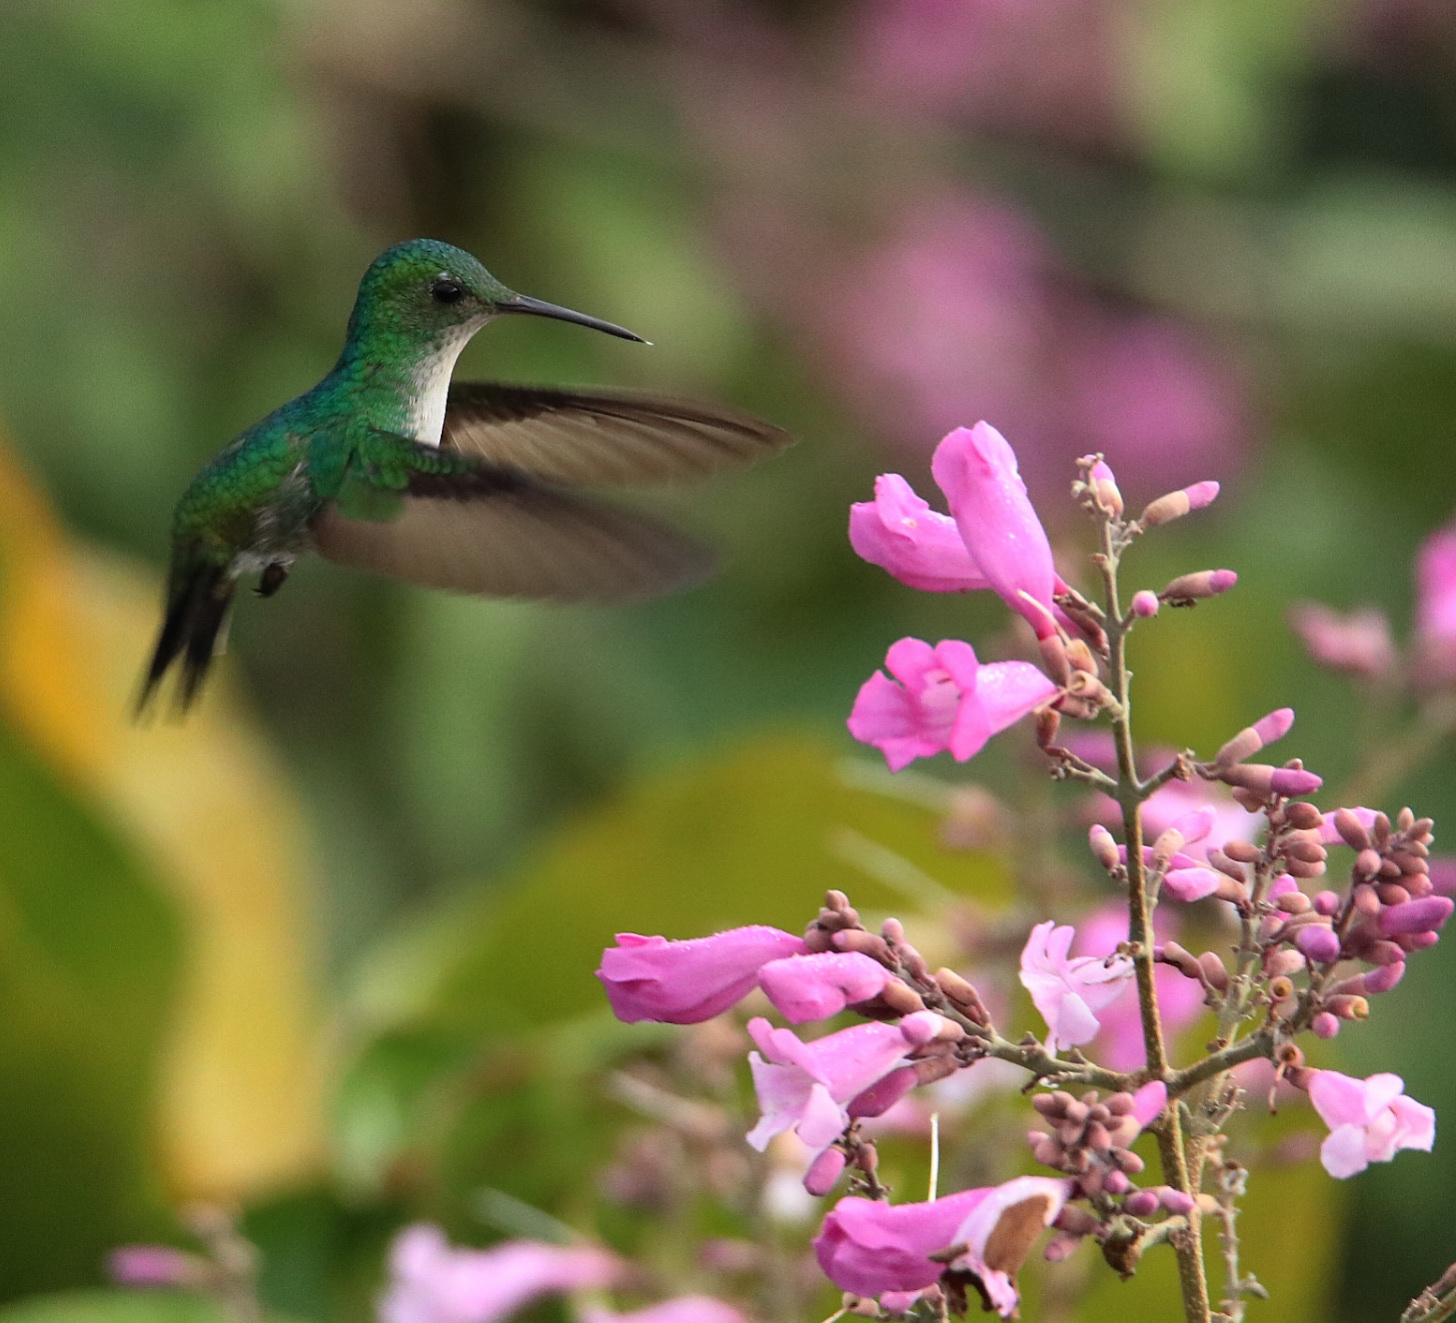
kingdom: Animalia
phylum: Chordata
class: Aves
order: Apodiformes
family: Trochilidae
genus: Polyerata
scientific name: Polyerata amabilis
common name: Blue-chested hummingbird
